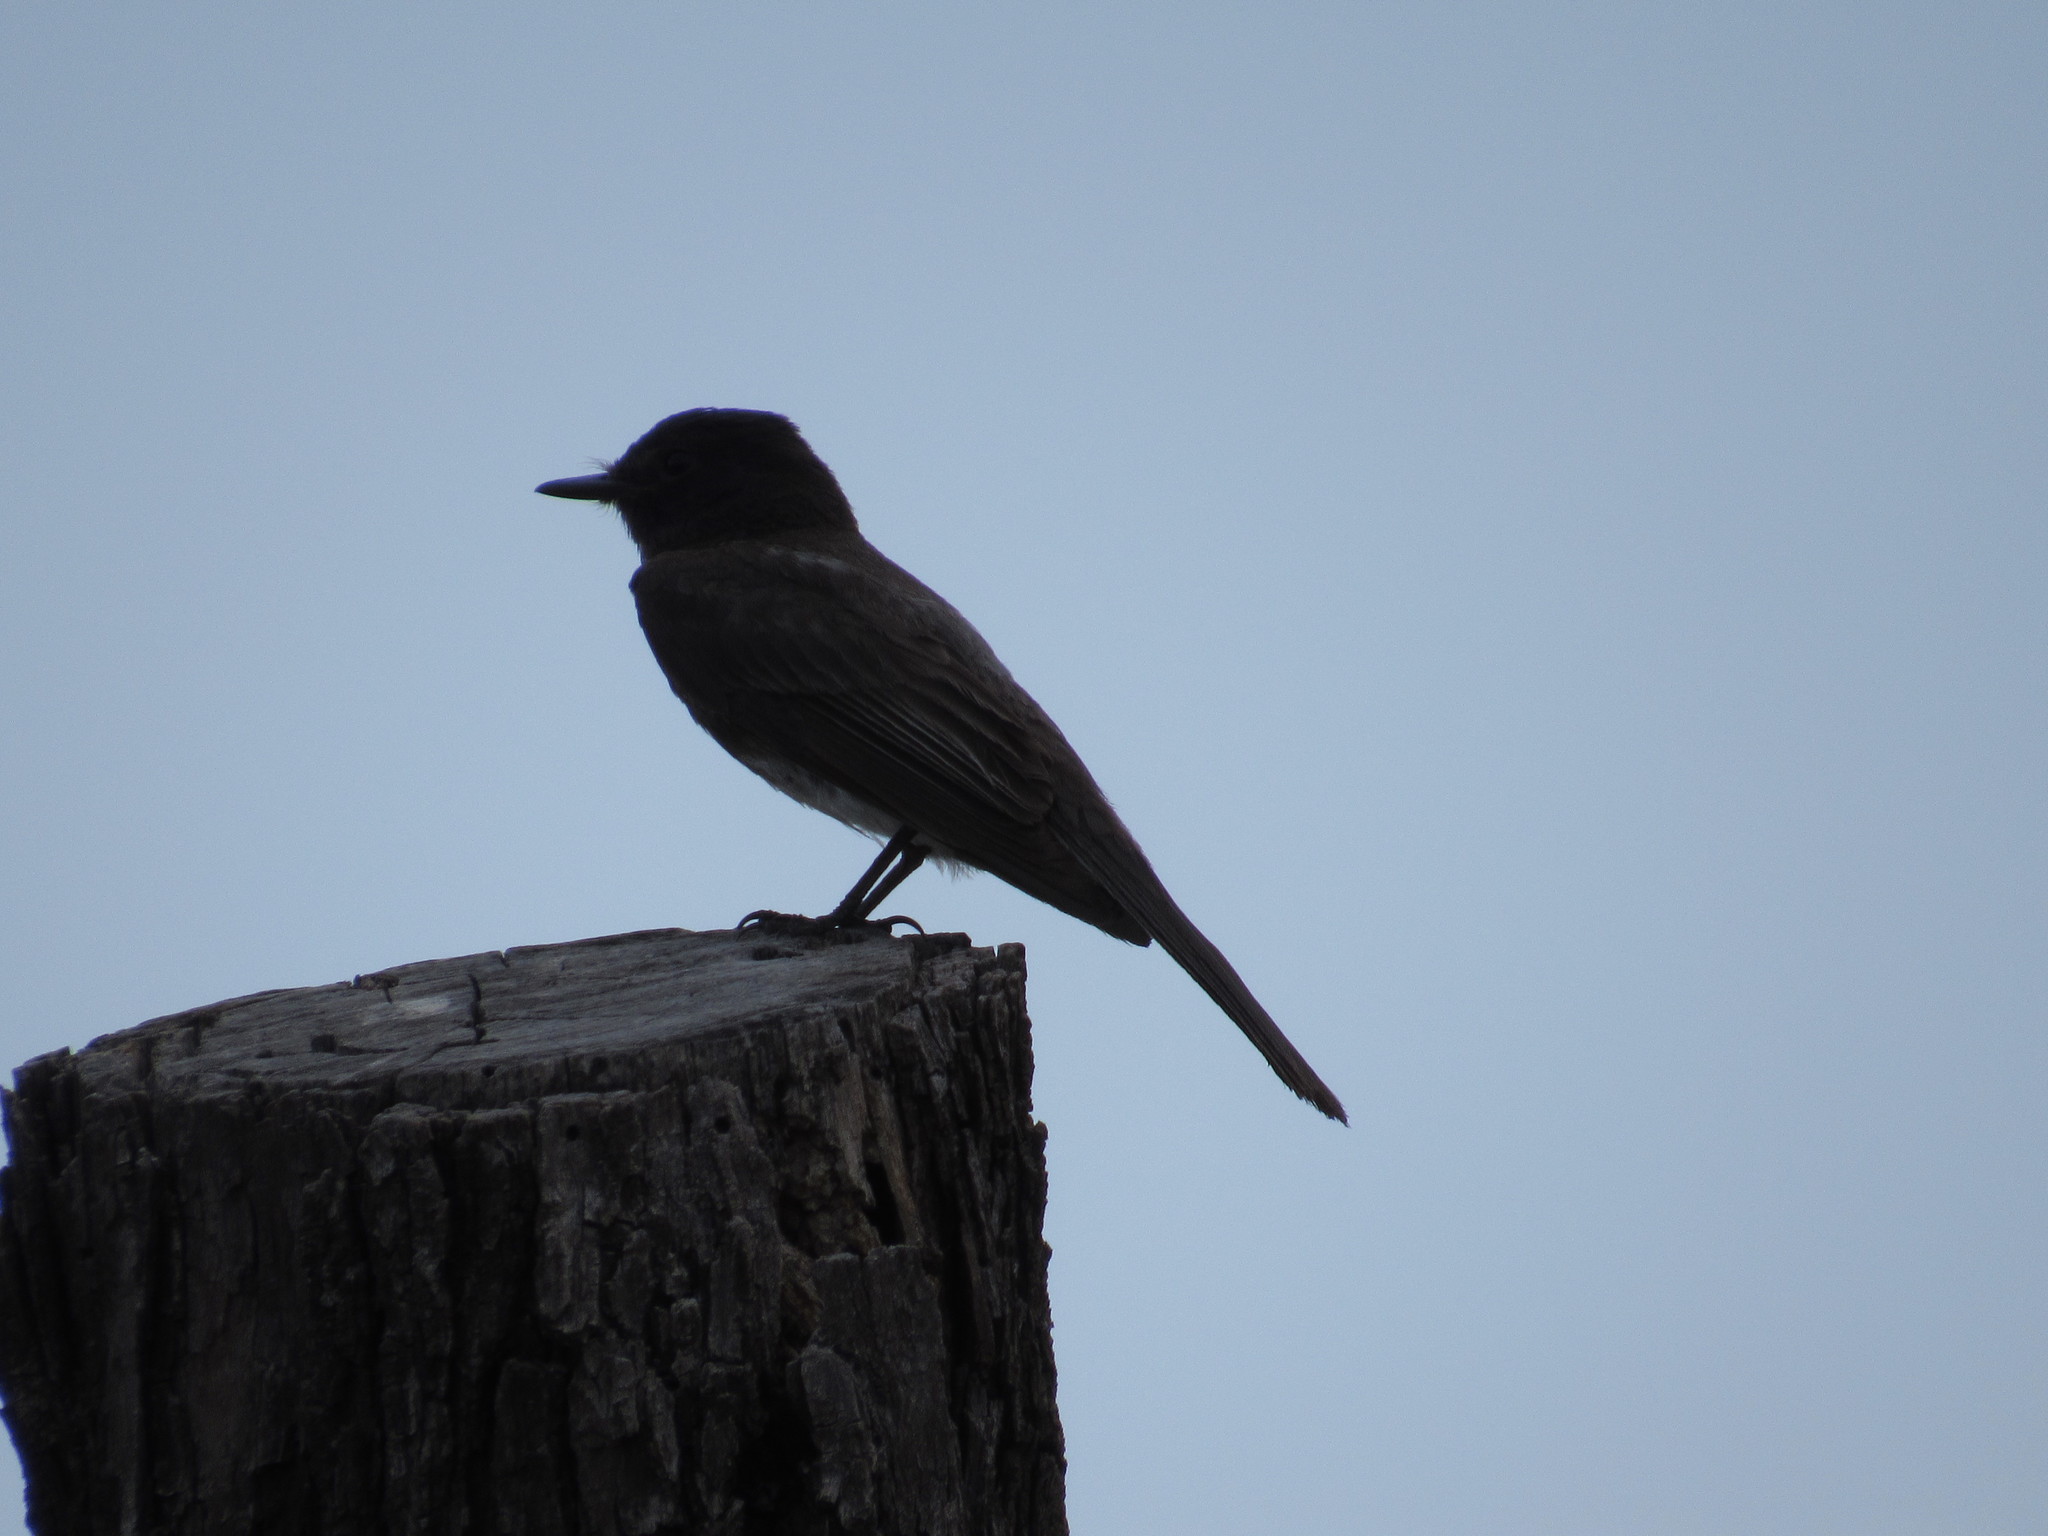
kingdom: Animalia
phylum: Chordata
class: Aves
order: Passeriformes
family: Tyrannidae
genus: Sayornis
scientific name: Sayornis nigricans
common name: Black phoebe
